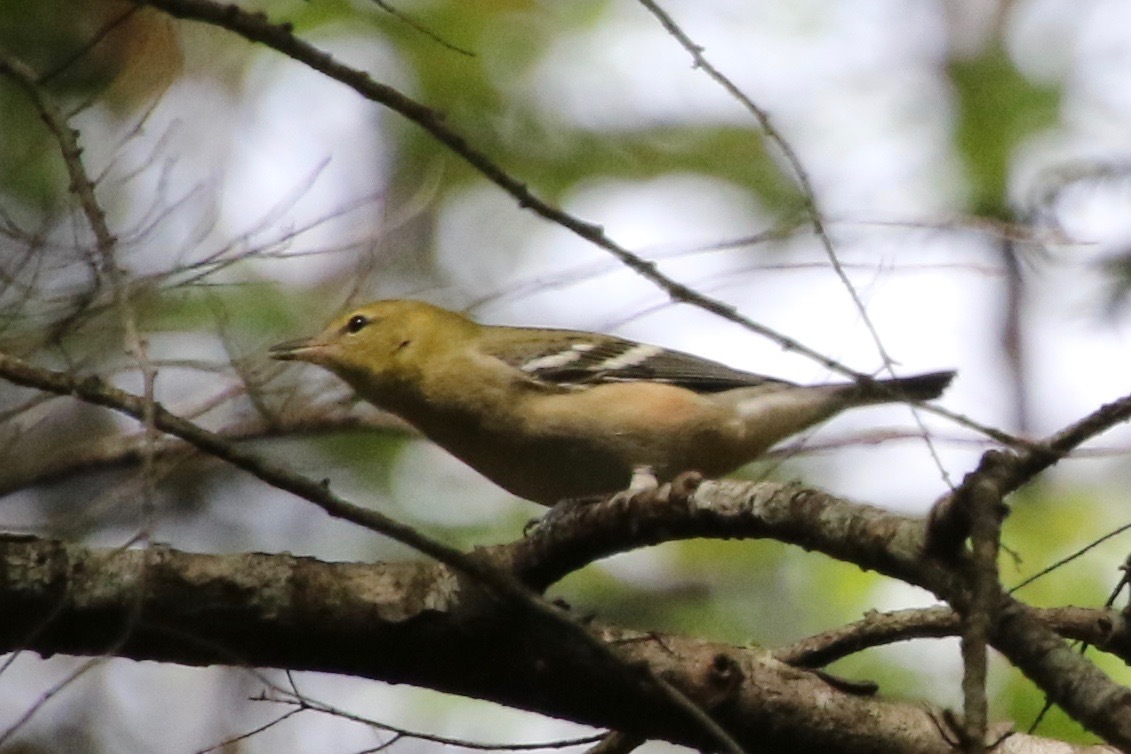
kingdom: Animalia
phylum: Chordata
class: Aves
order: Passeriformes
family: Parulidae
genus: Setophaga
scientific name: Setophaga castanea
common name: Bay-breasted warbler
